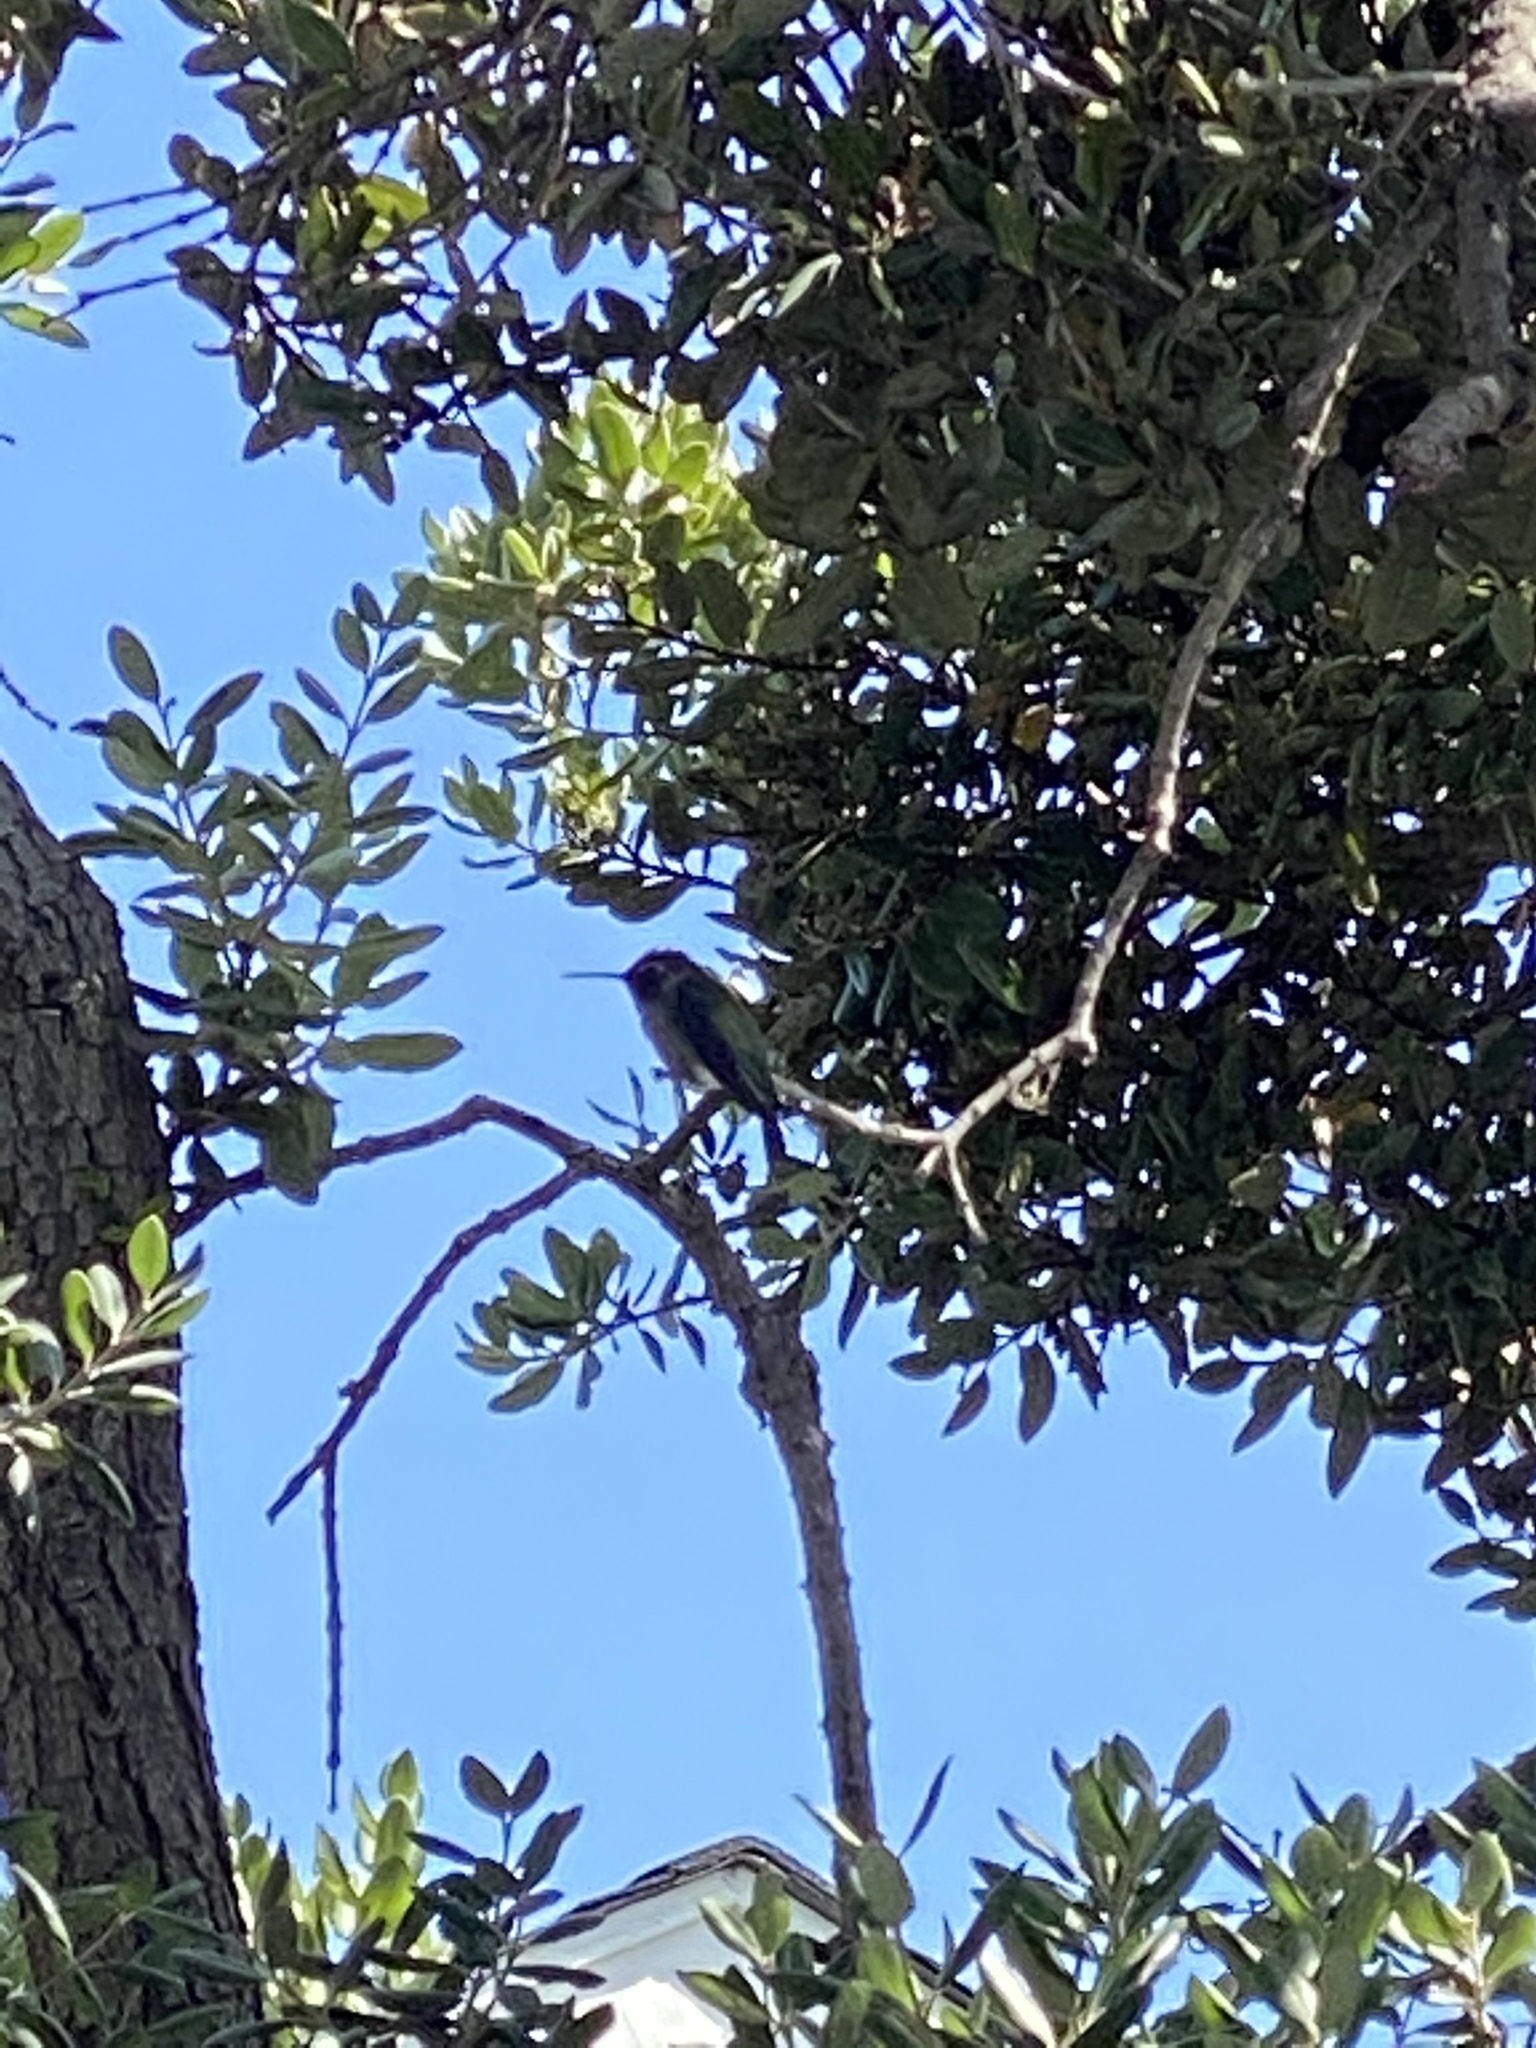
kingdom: Animalia
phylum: Chordata
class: Aves
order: Apodiformes
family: Trochilidae
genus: Calypte
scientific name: Calypte anna
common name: Anna's hummingbird
